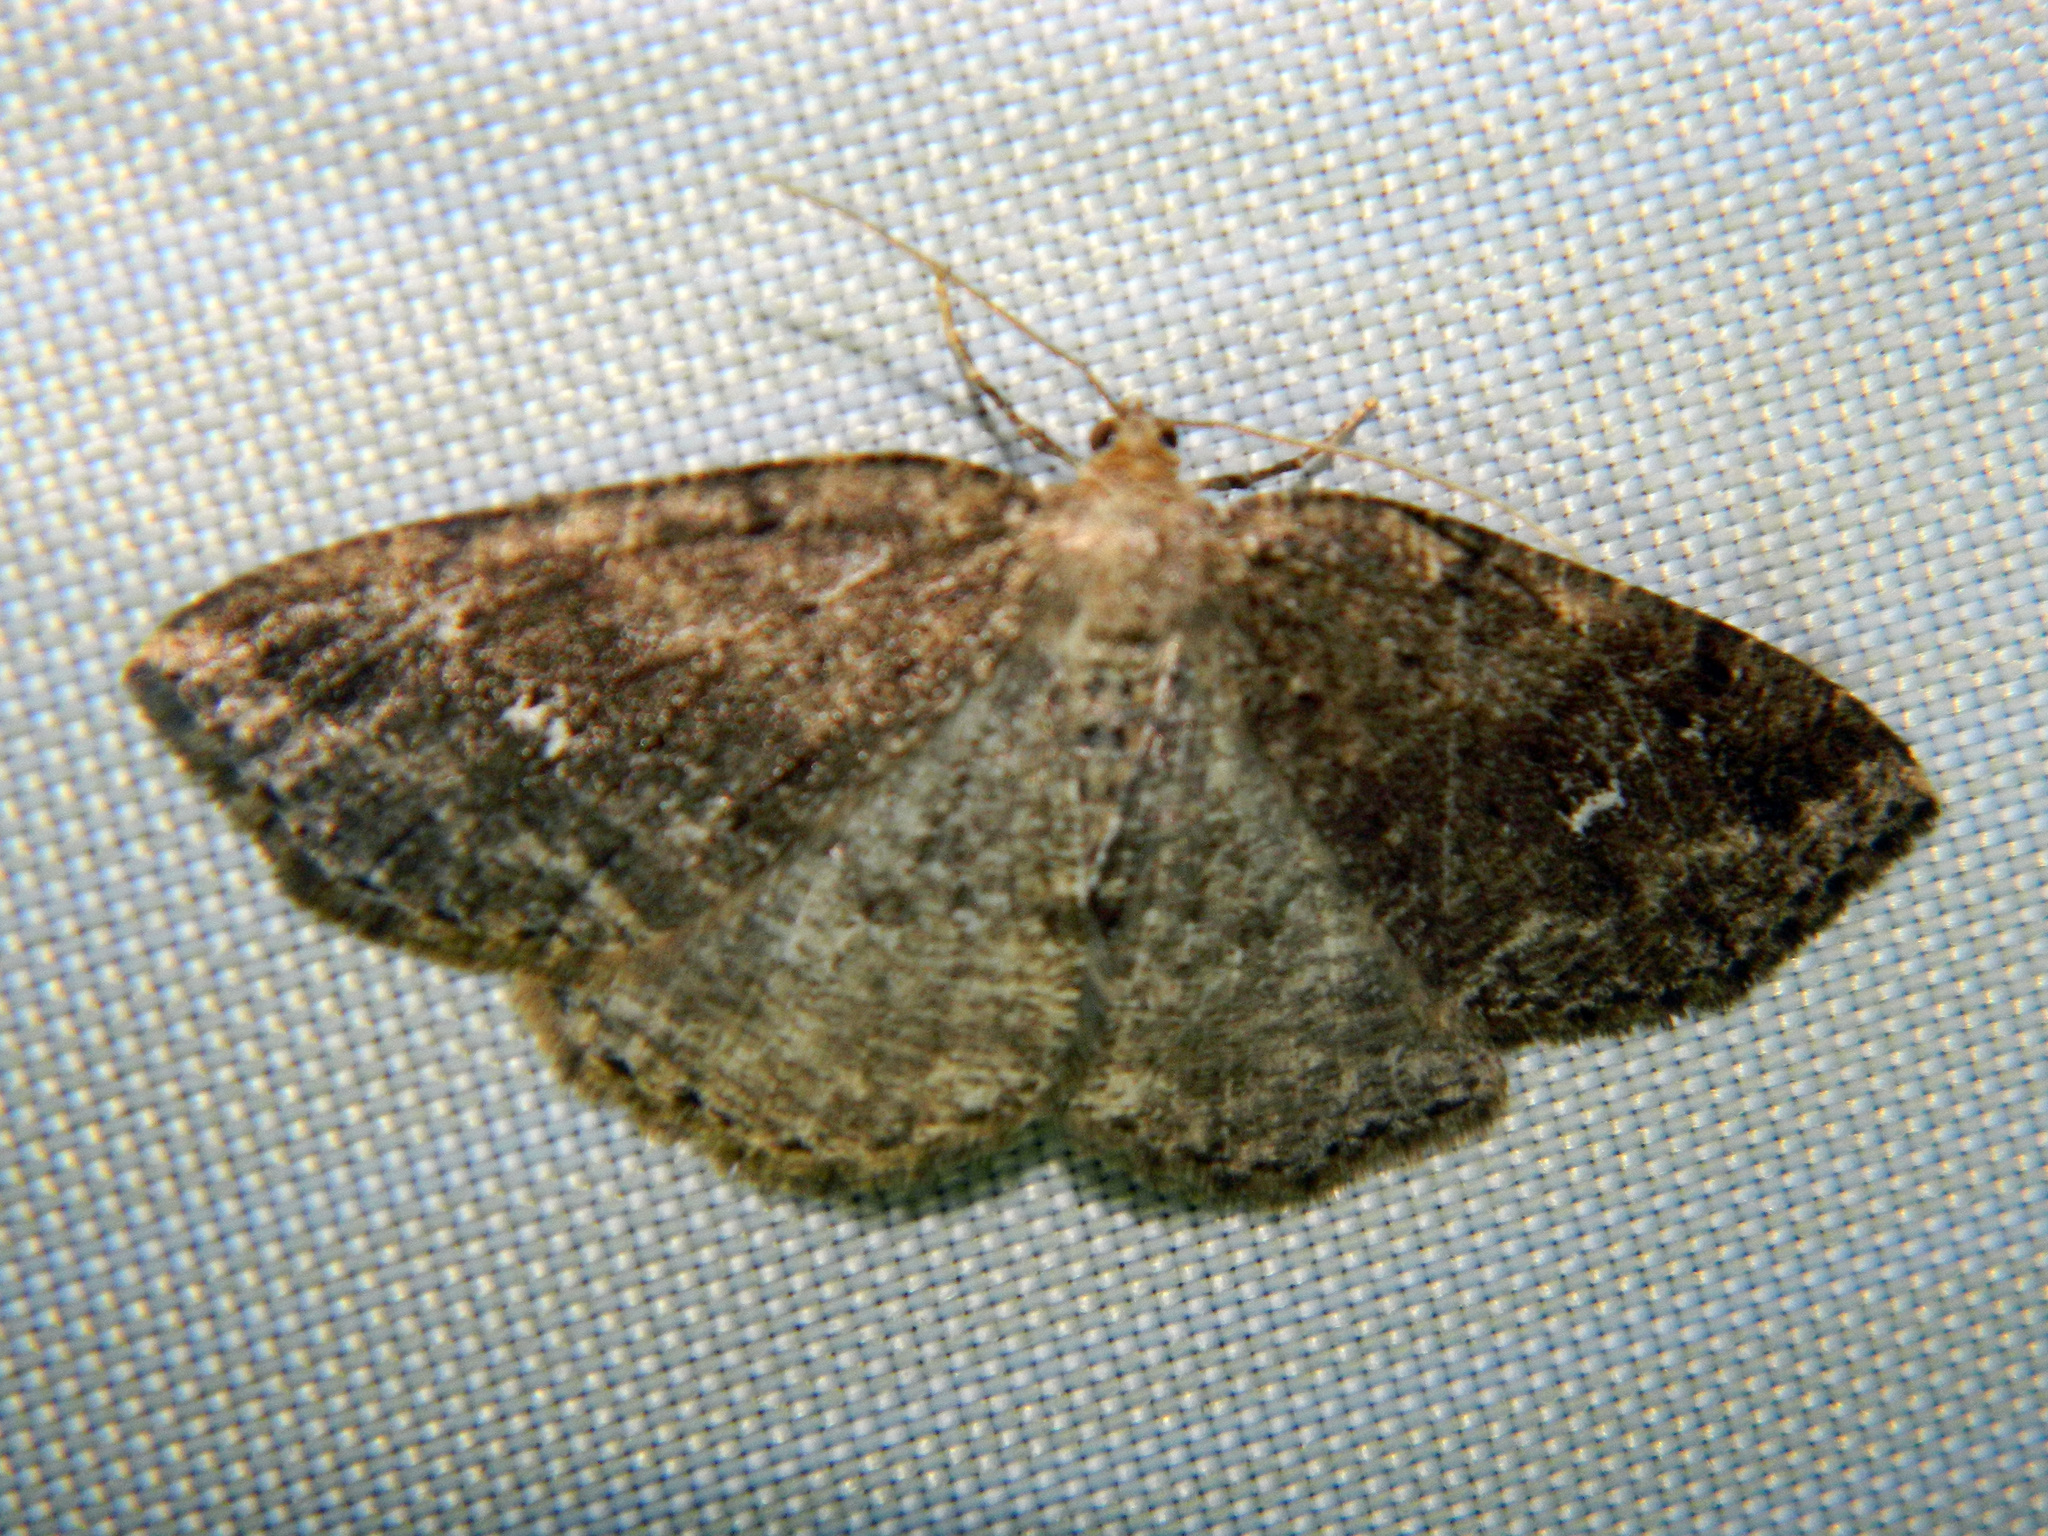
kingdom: Animalia
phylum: Arthropoda
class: Insecta
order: Lepidoptera
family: Geometridae
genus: Homochlodes
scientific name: Homochlodes fritillaria
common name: Pale homochlodes
